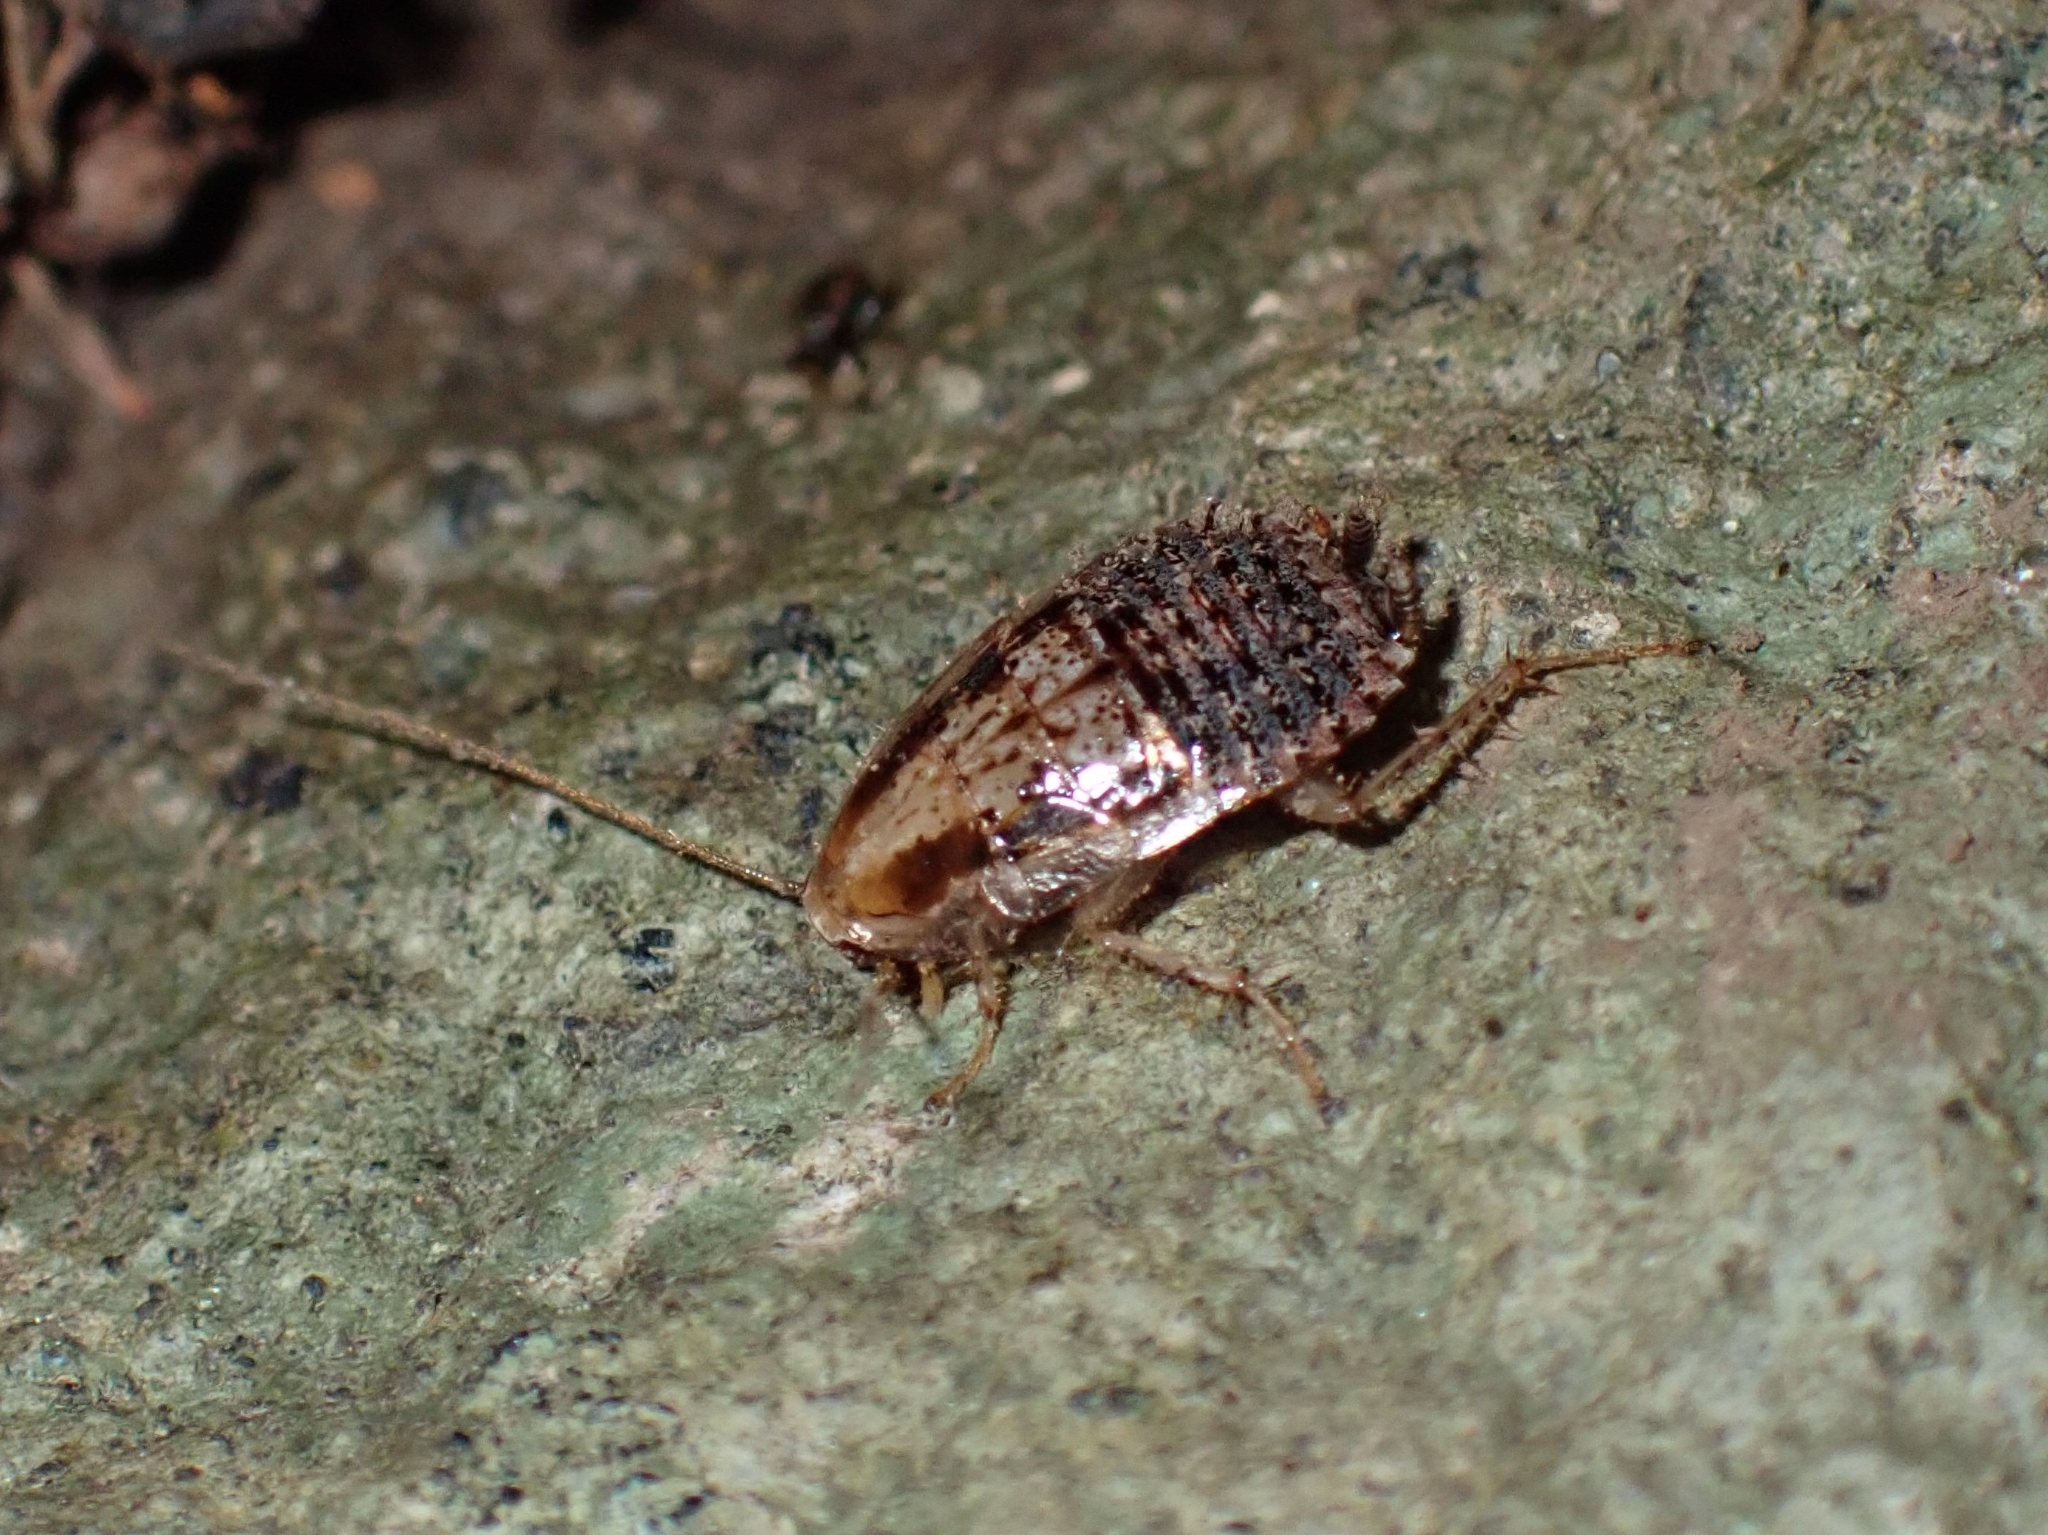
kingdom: Animalia
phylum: Arthropoda
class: Insecta
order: Blattodea
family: Ectobiidae
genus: Phyllodromica
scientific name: Phyllodromica brullei
